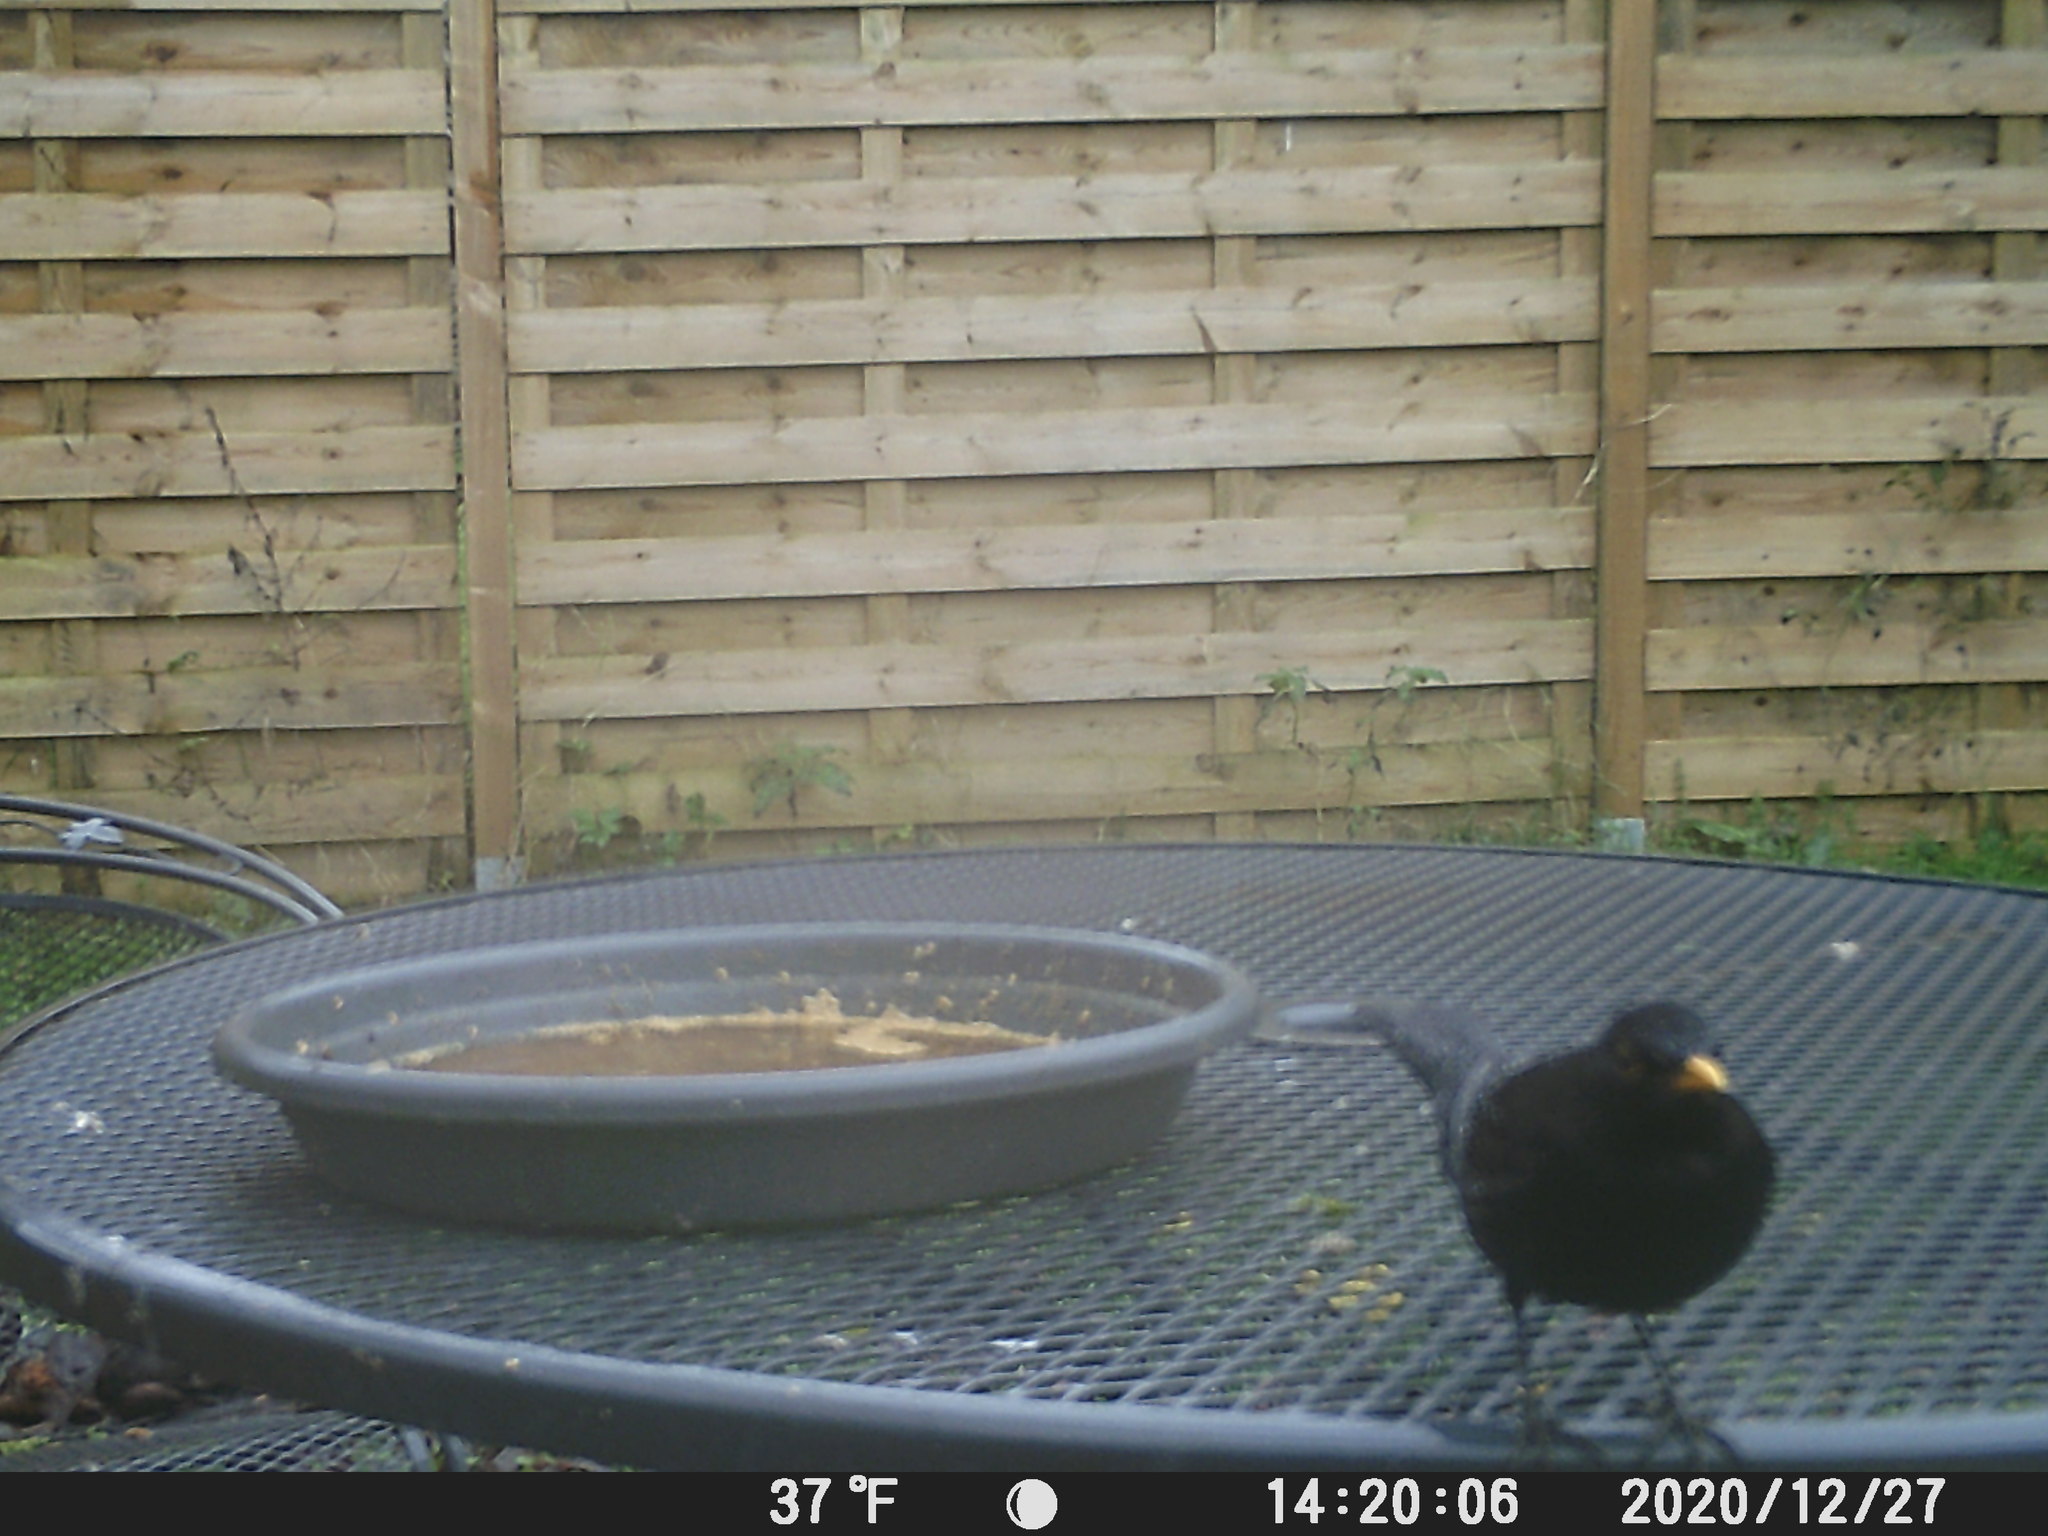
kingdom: Animalia
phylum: Chordata
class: Aves
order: Passeriformes
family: Turdidae
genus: Turdus
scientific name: Turdus merula
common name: Common blackbird
